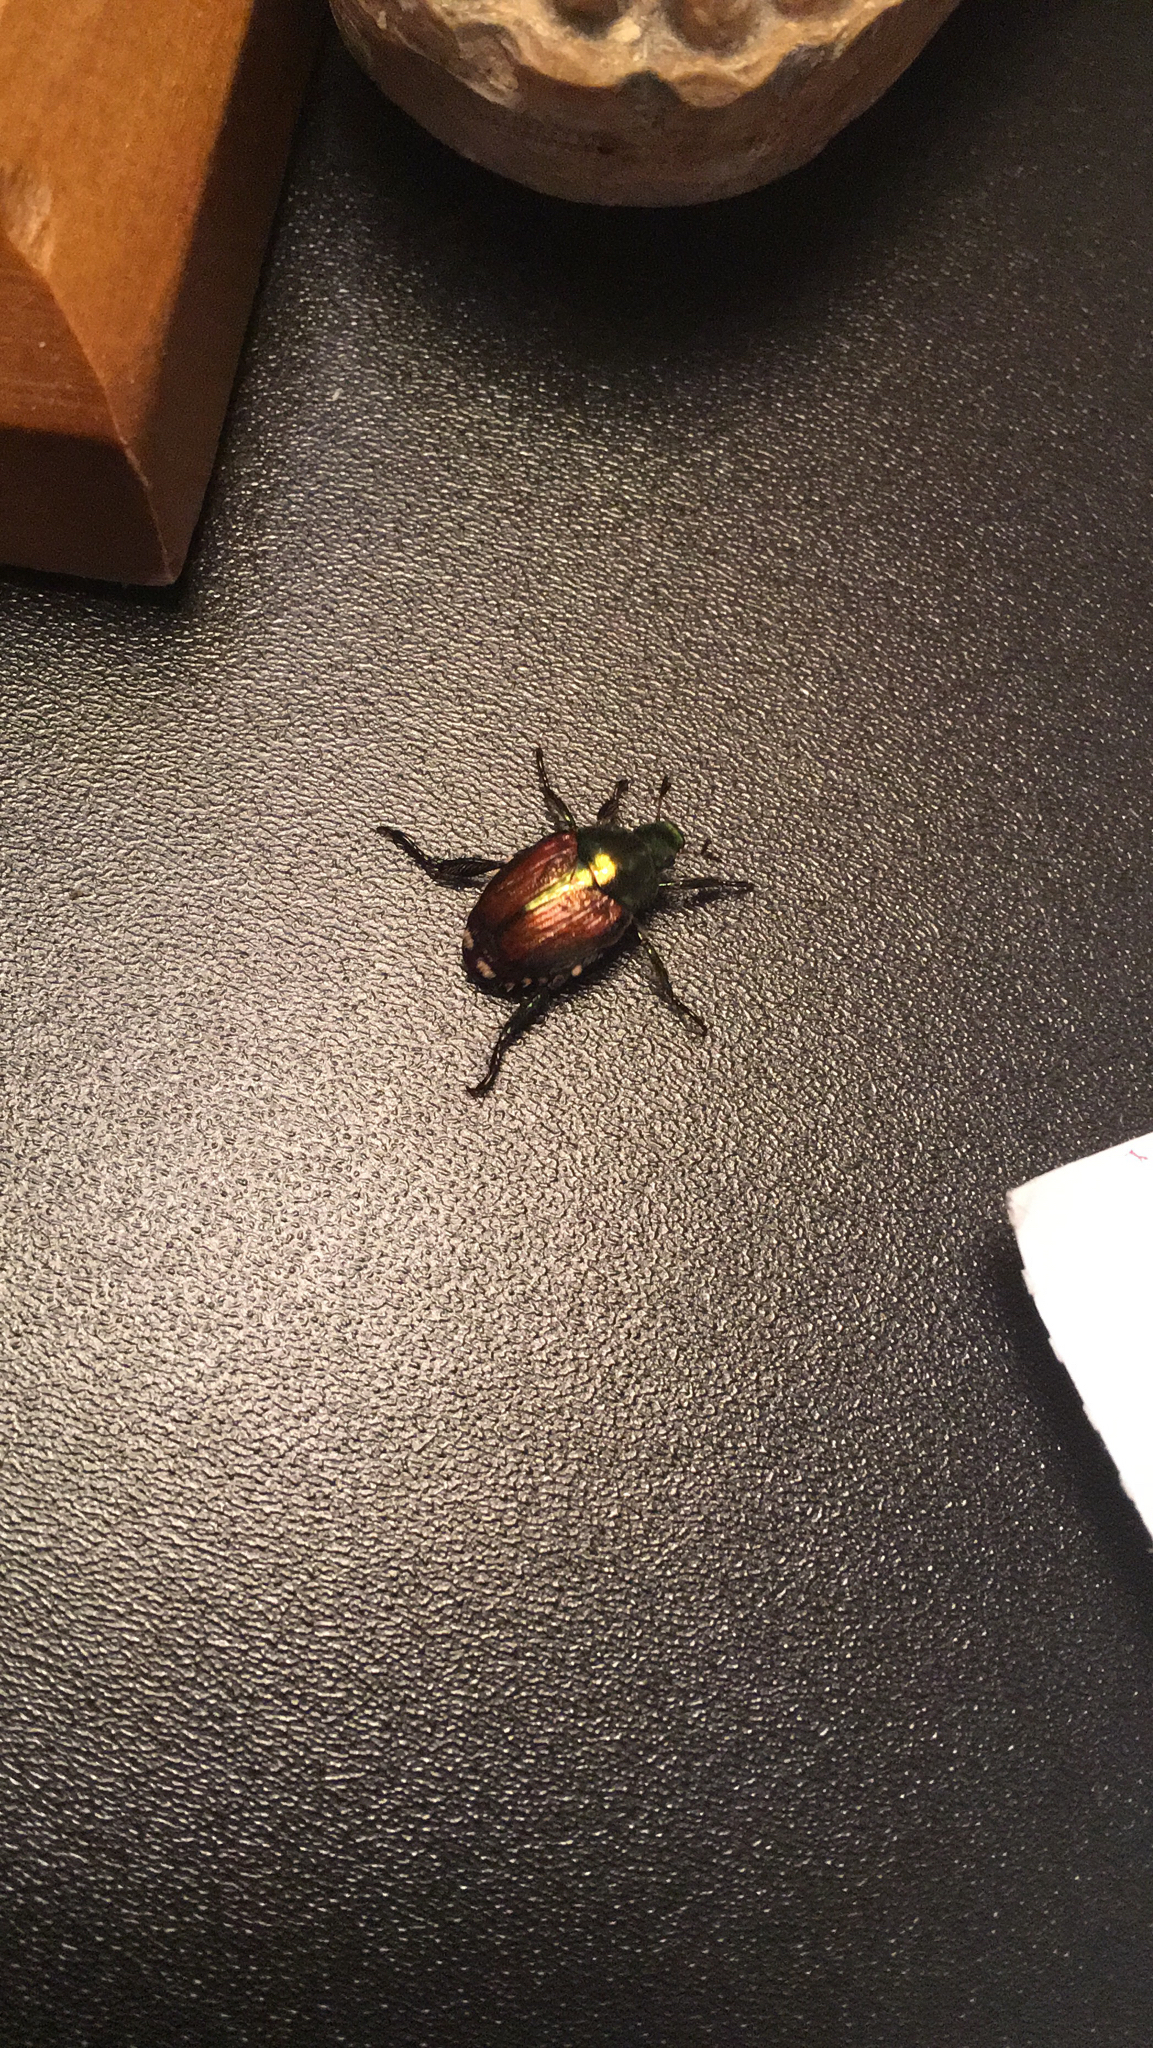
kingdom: Animalia
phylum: Arthropoda
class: Insecta
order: Coleoptera
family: Scarabaeidae
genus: Popillia
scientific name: Popillia japonica
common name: Japanese beetle
